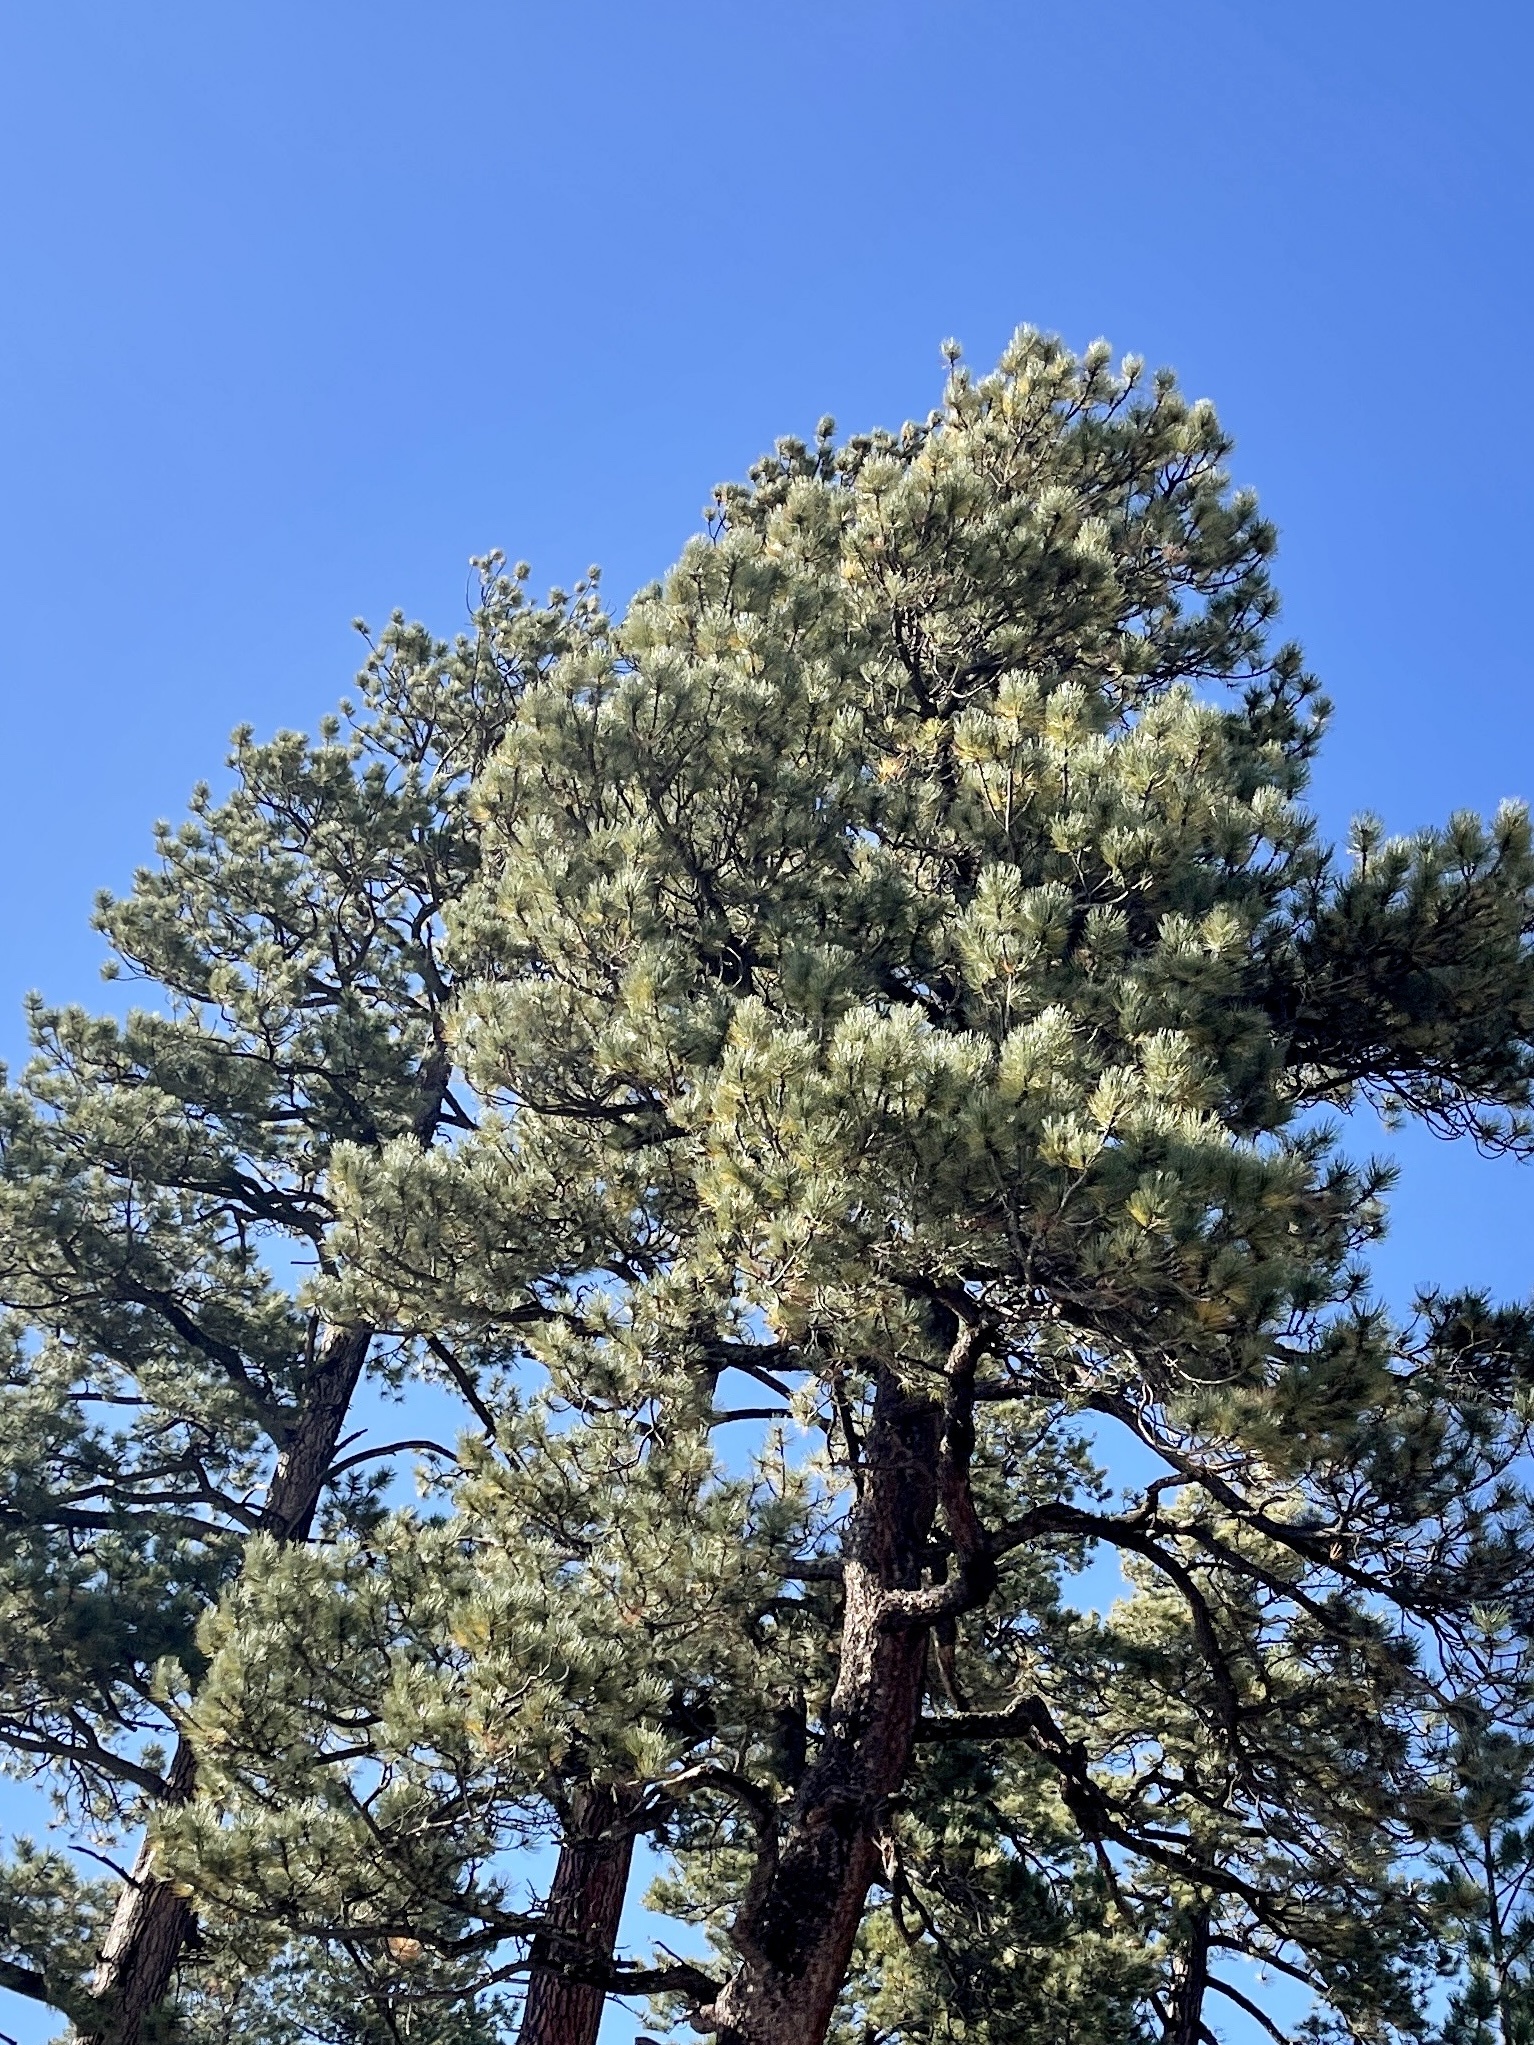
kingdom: Plantae
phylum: Tracheophyta
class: Pinopsida
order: Pinales
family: Pinaceae
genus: Pinus
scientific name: Pinus ponderosa
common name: Western yellow-pine
